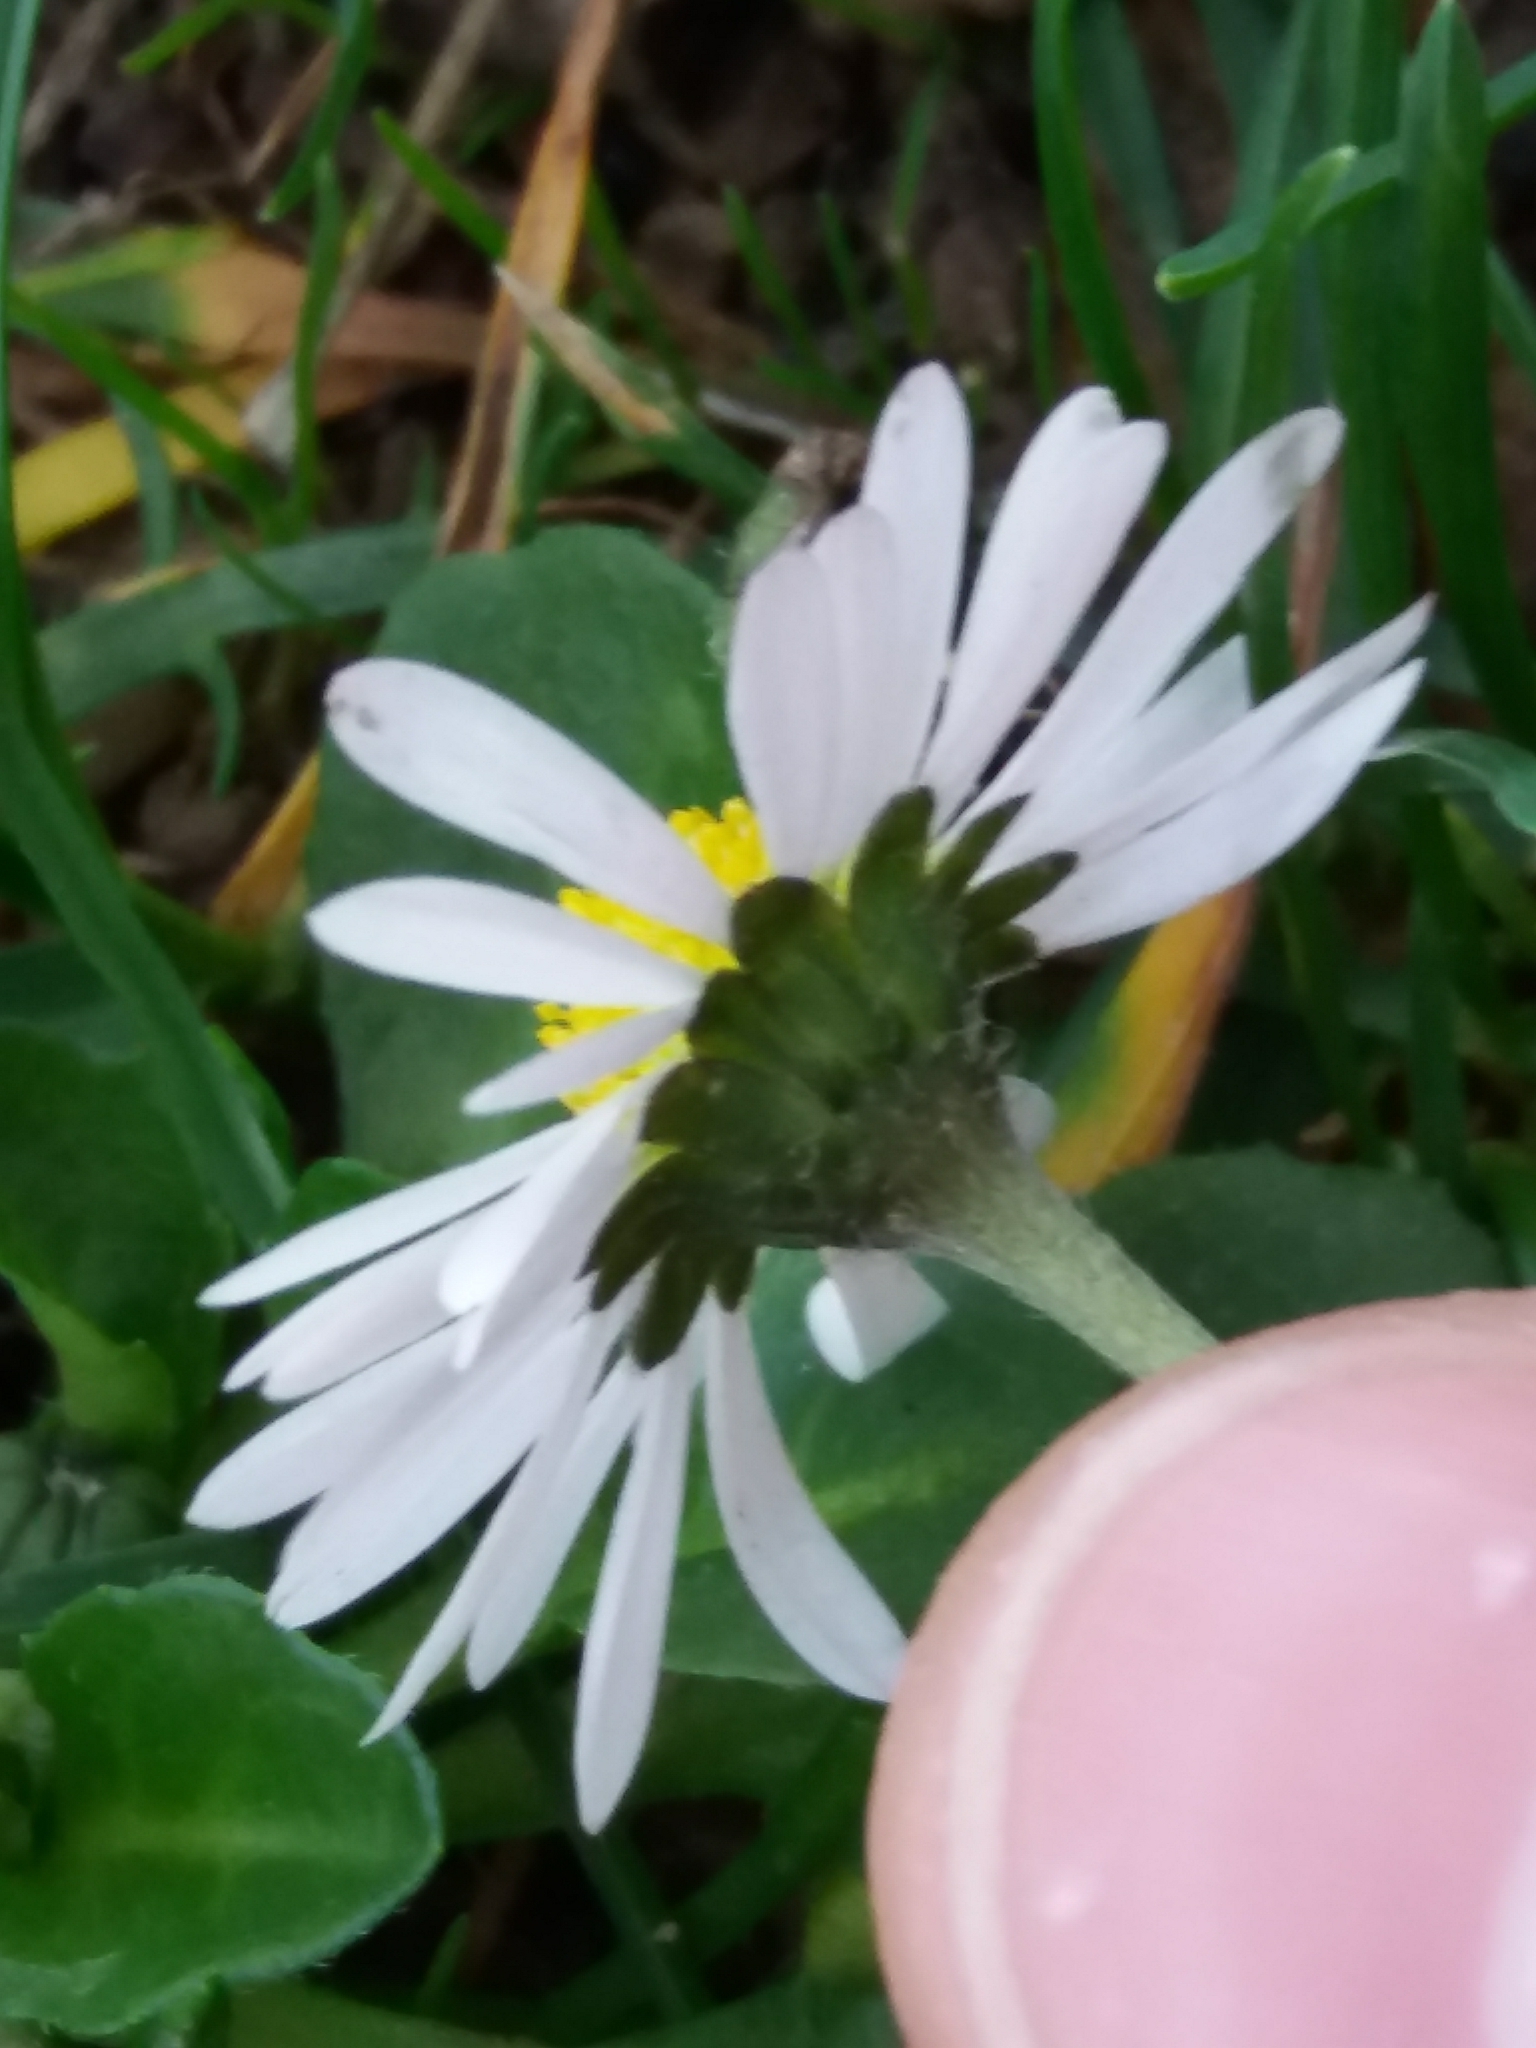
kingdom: Plantae
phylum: Tracheophyta
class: Magnoliopsida
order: Asterales
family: Asteraceae
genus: Bellis
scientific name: Bellis perennis
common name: Lawndaisy
